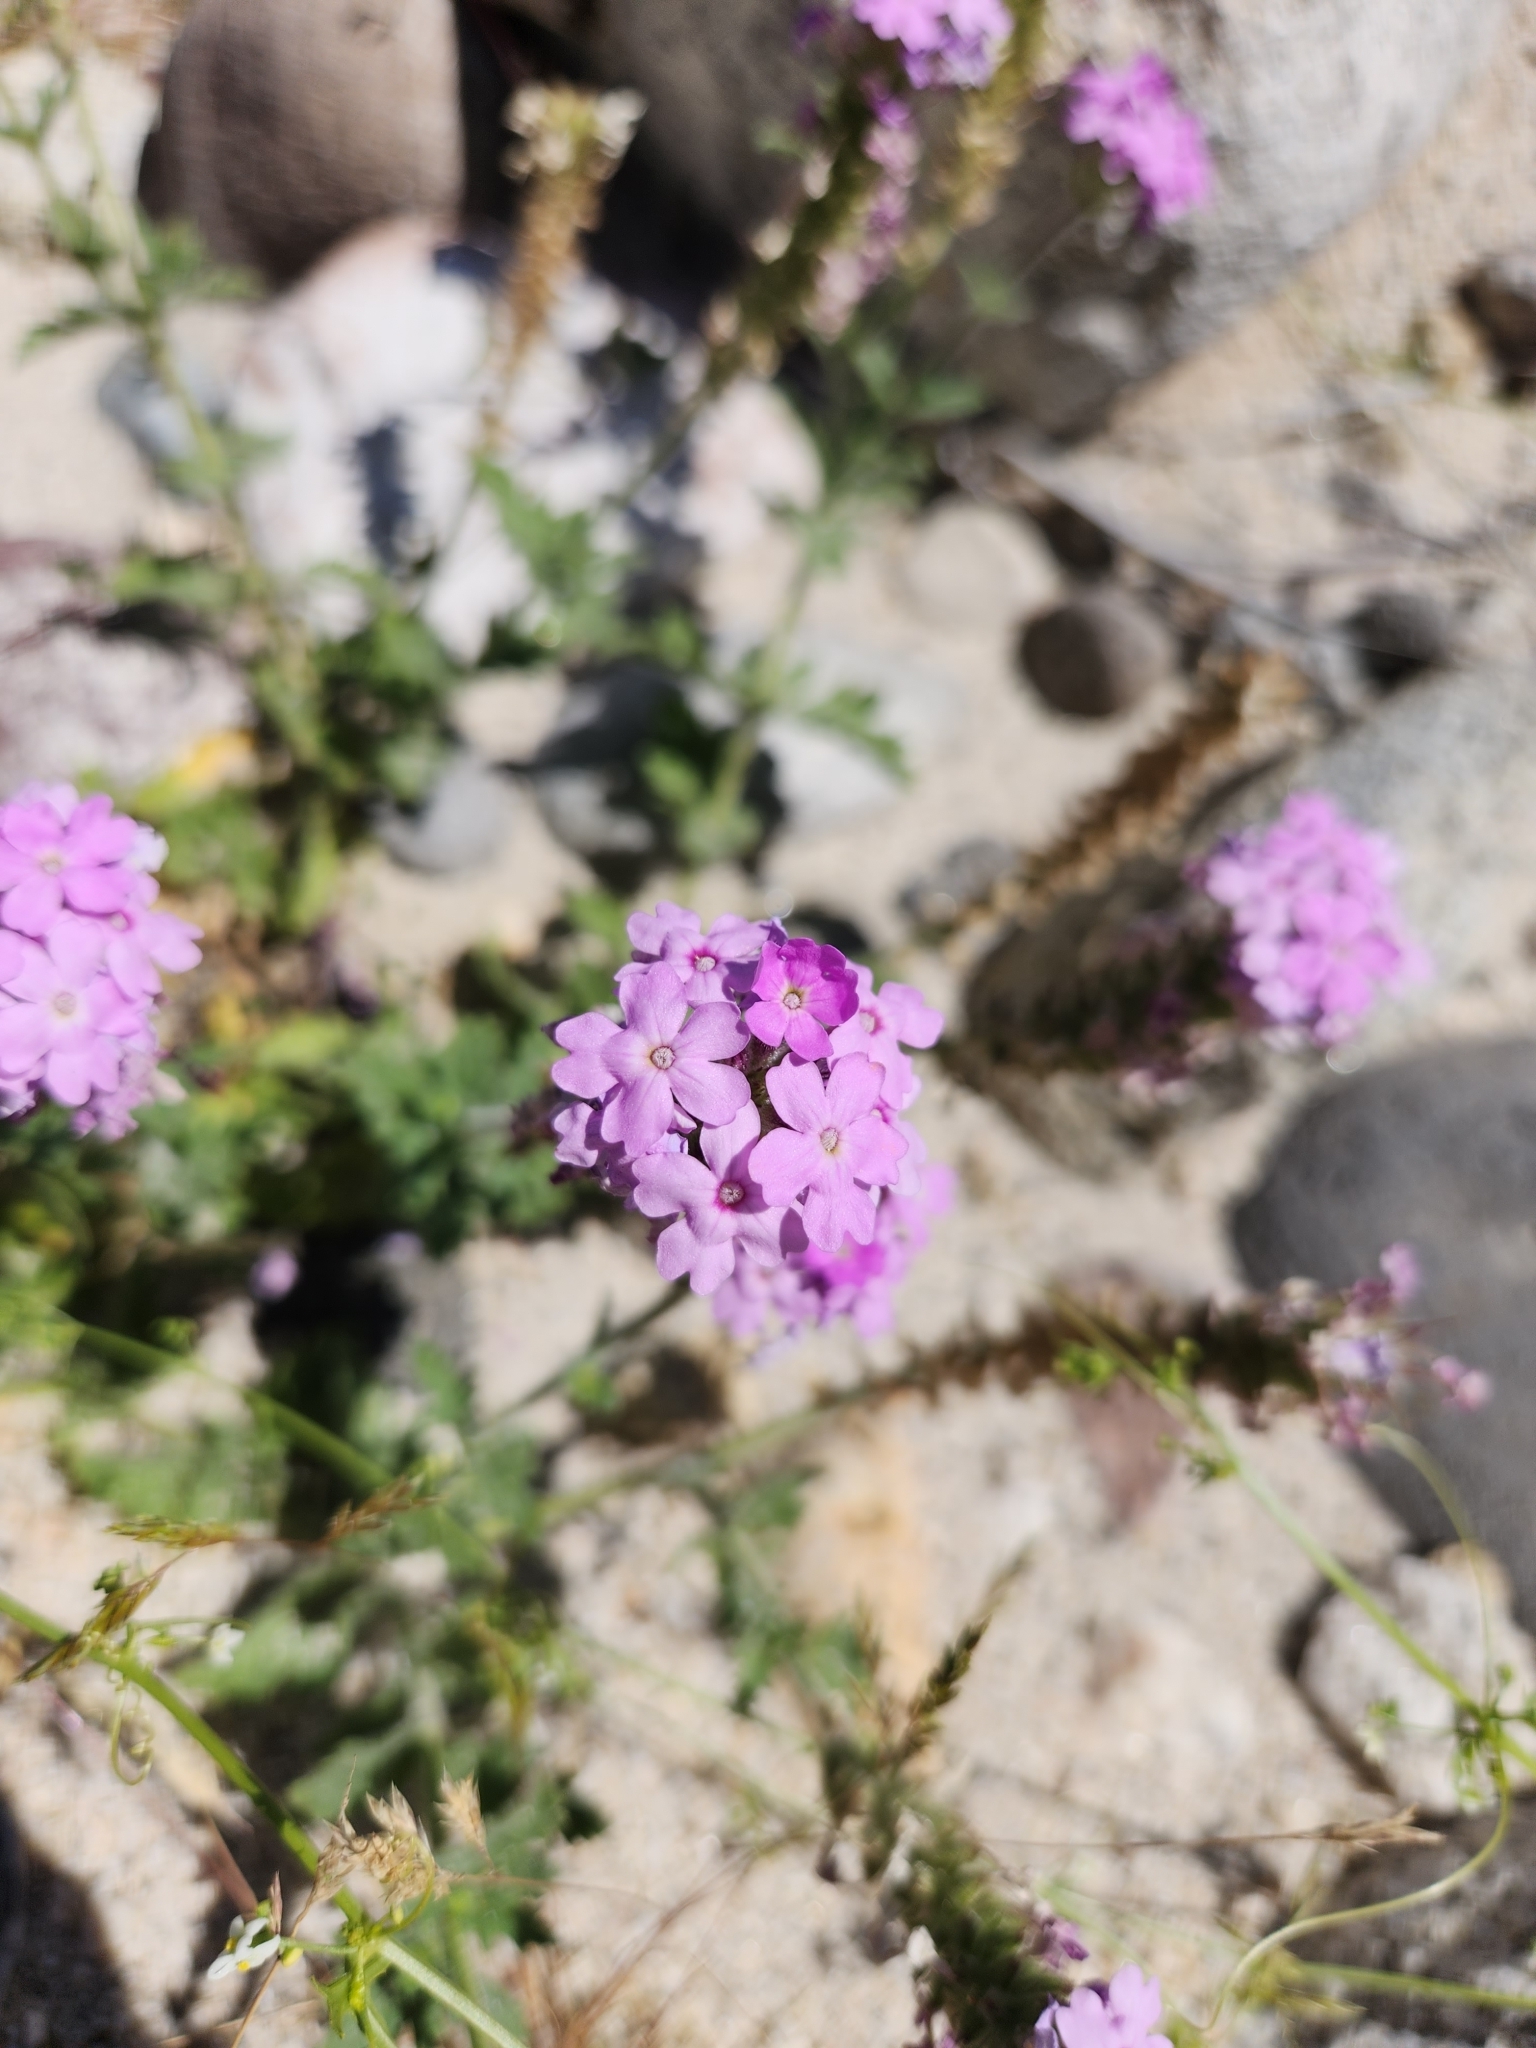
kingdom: Plantae
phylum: Tracheophyta
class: Magnoliopsida
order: Lamiales
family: Verbenaceae
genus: Verbena
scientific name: Verbena gooddingii
